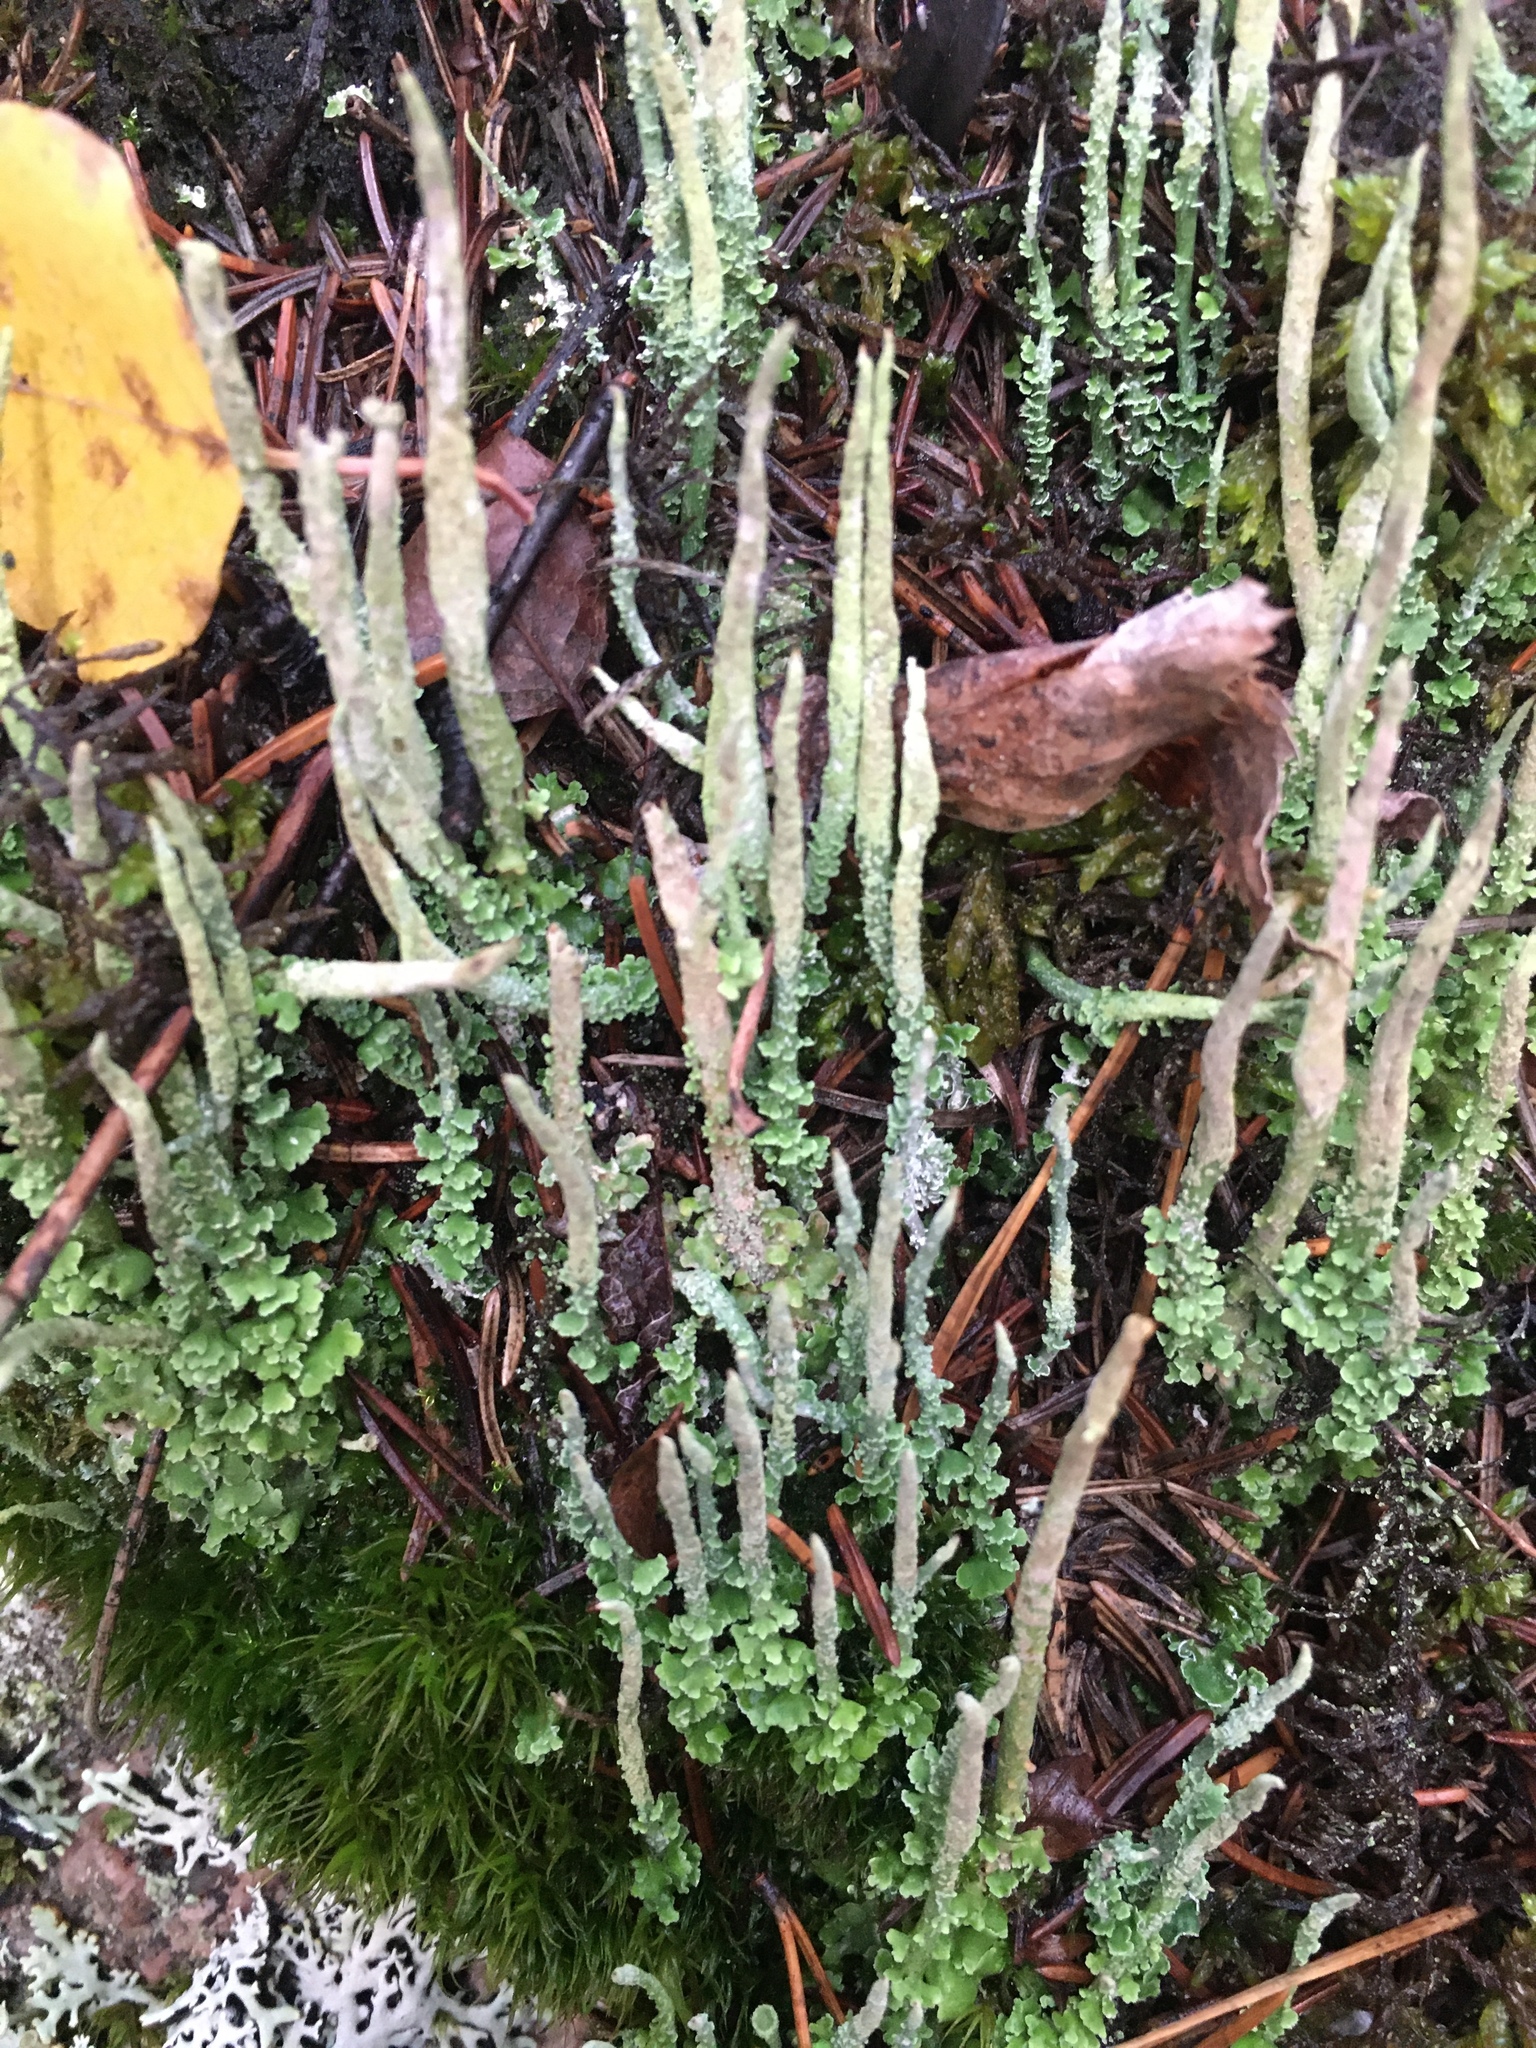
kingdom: Fungi
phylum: Ascomycota
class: Lecanoromycetes
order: Lecanorales
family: Cladoniaceae
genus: Cladonia
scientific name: Cladonia cornuta
